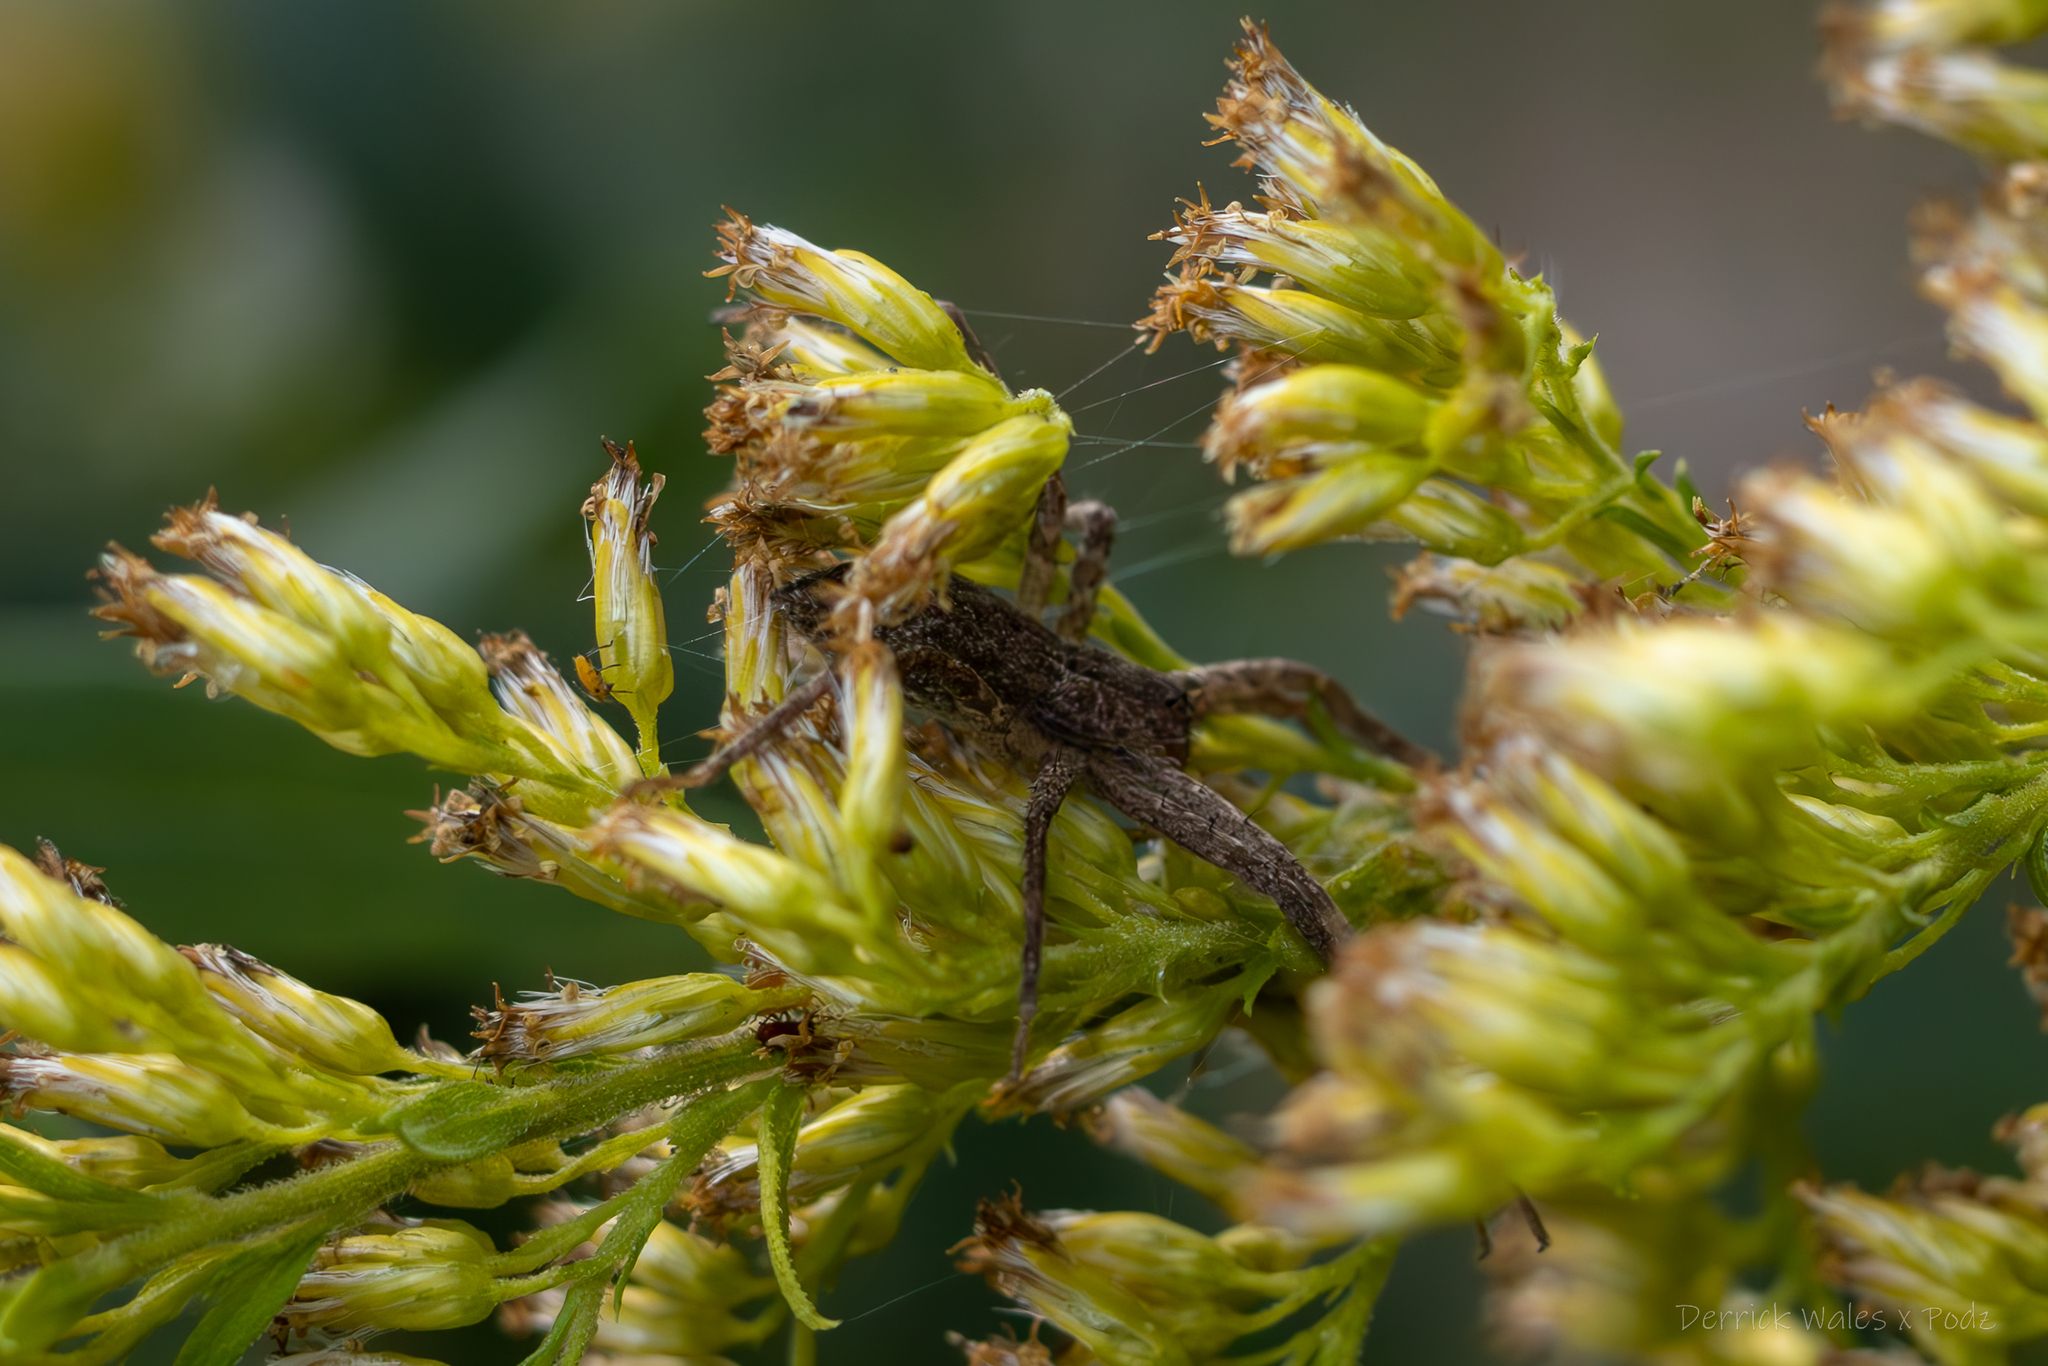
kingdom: Animalia
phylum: Arthropoda
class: Arachnida
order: Araneae
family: Pisauridae
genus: Pisaurina
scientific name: Pisaurina mira
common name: American nursery web spider
